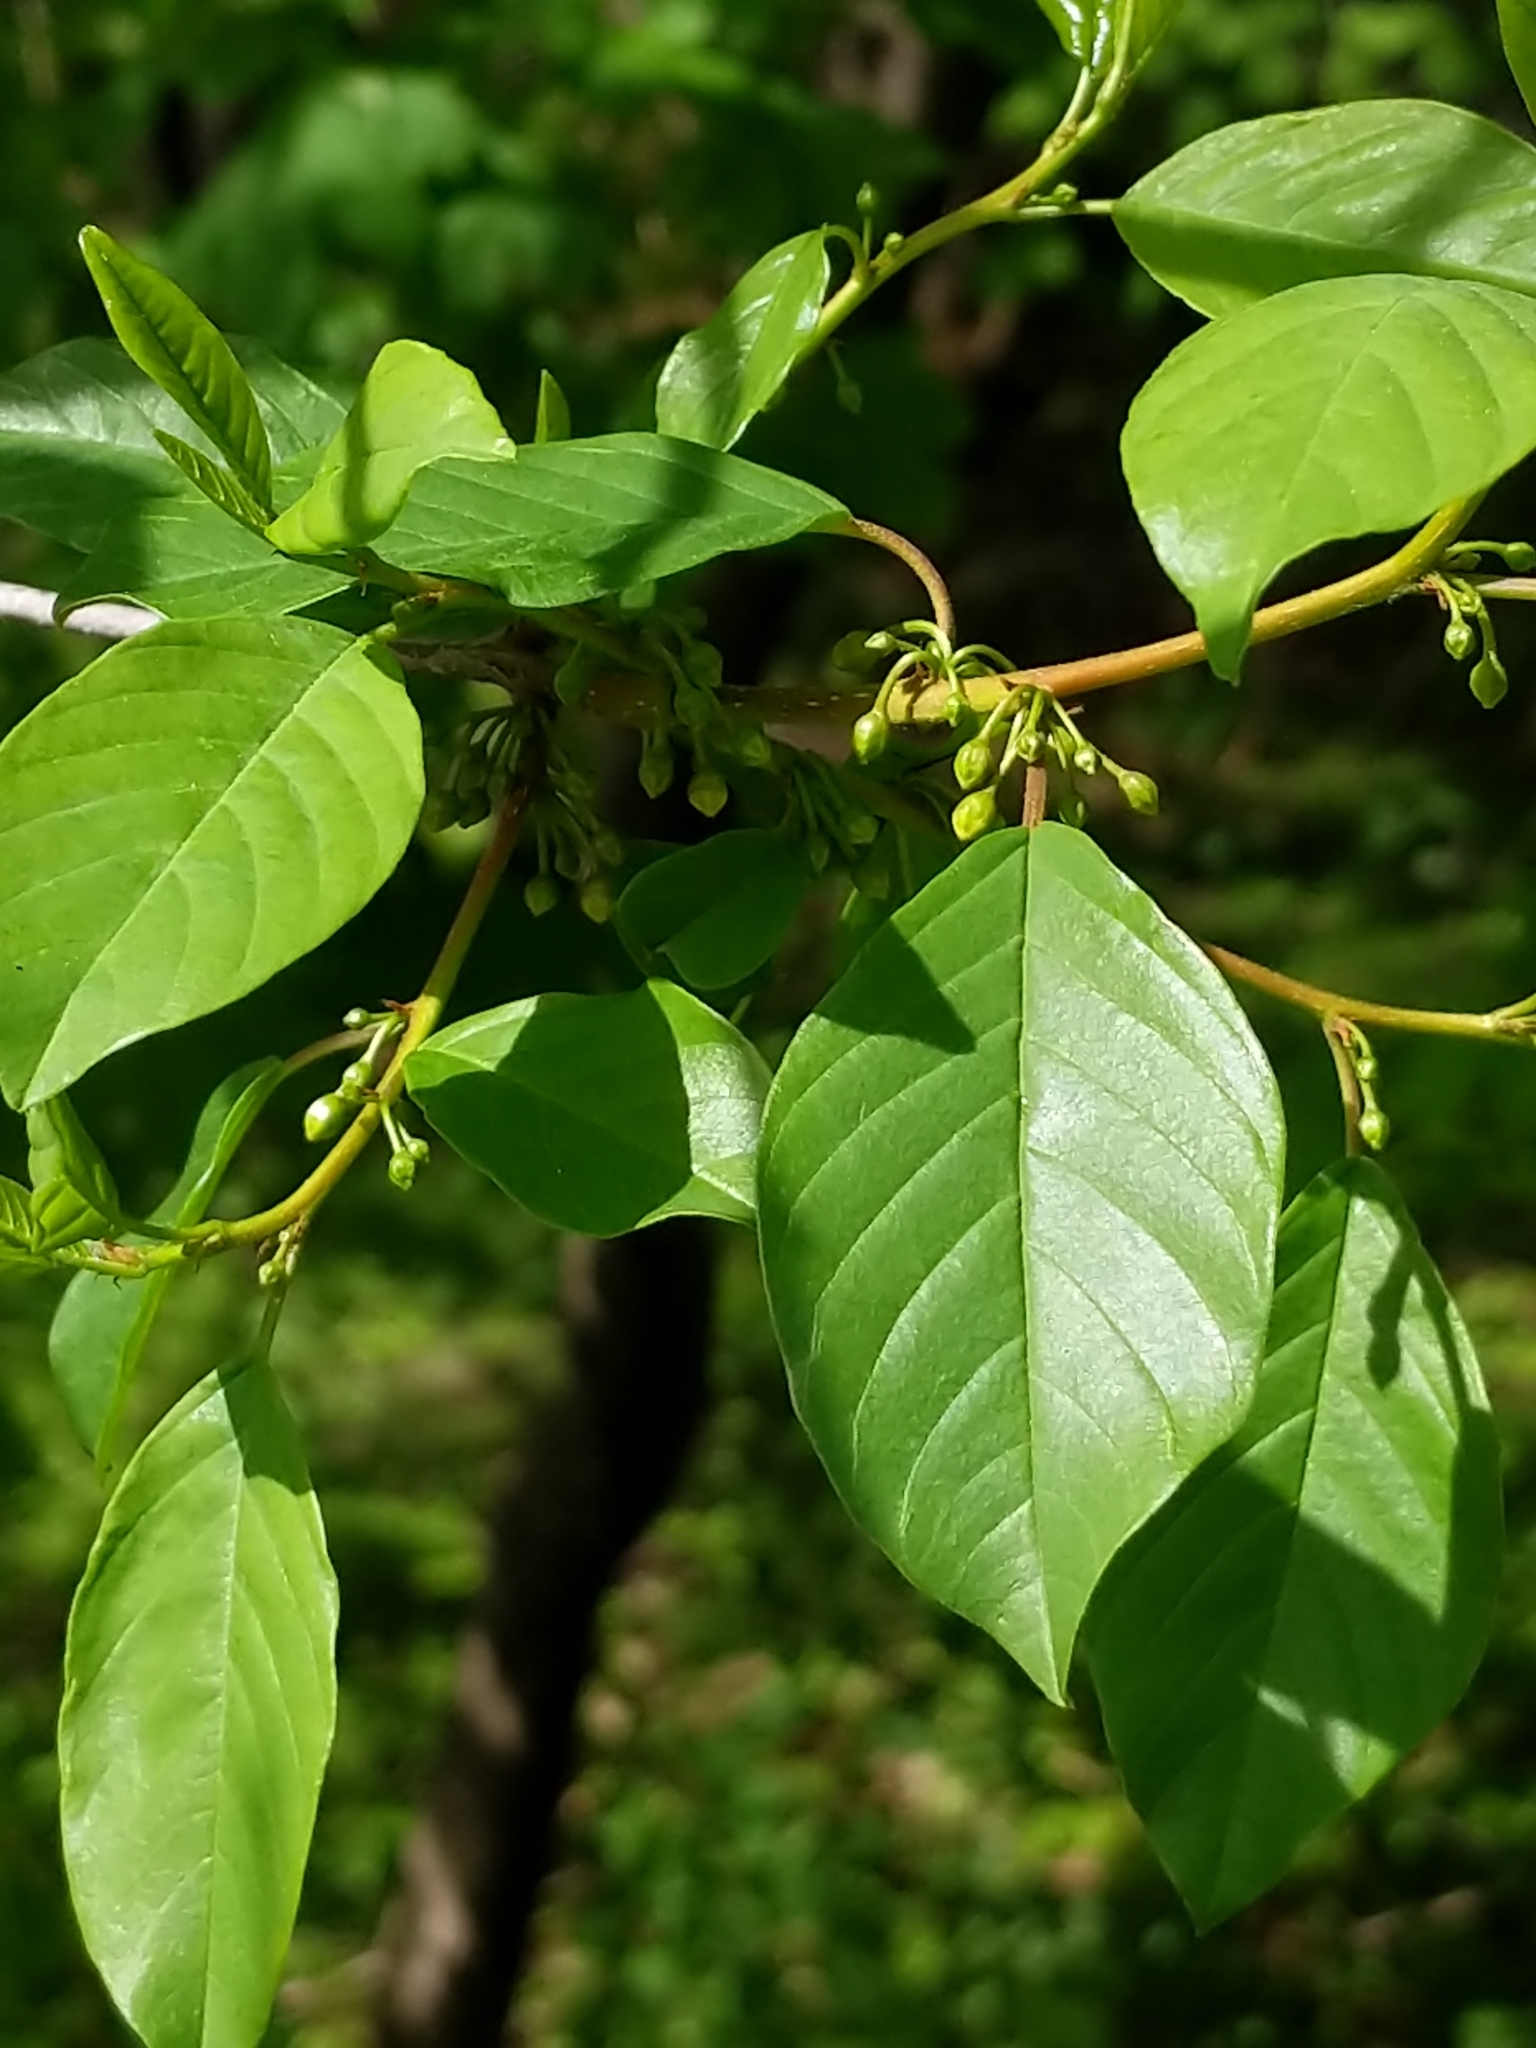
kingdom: Plantae
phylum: Tracheophyta
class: Magnoliopsida
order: Rosales
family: Rhamnaceae
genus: Frangula
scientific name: Frangula alnus
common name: Alder buckthorn
